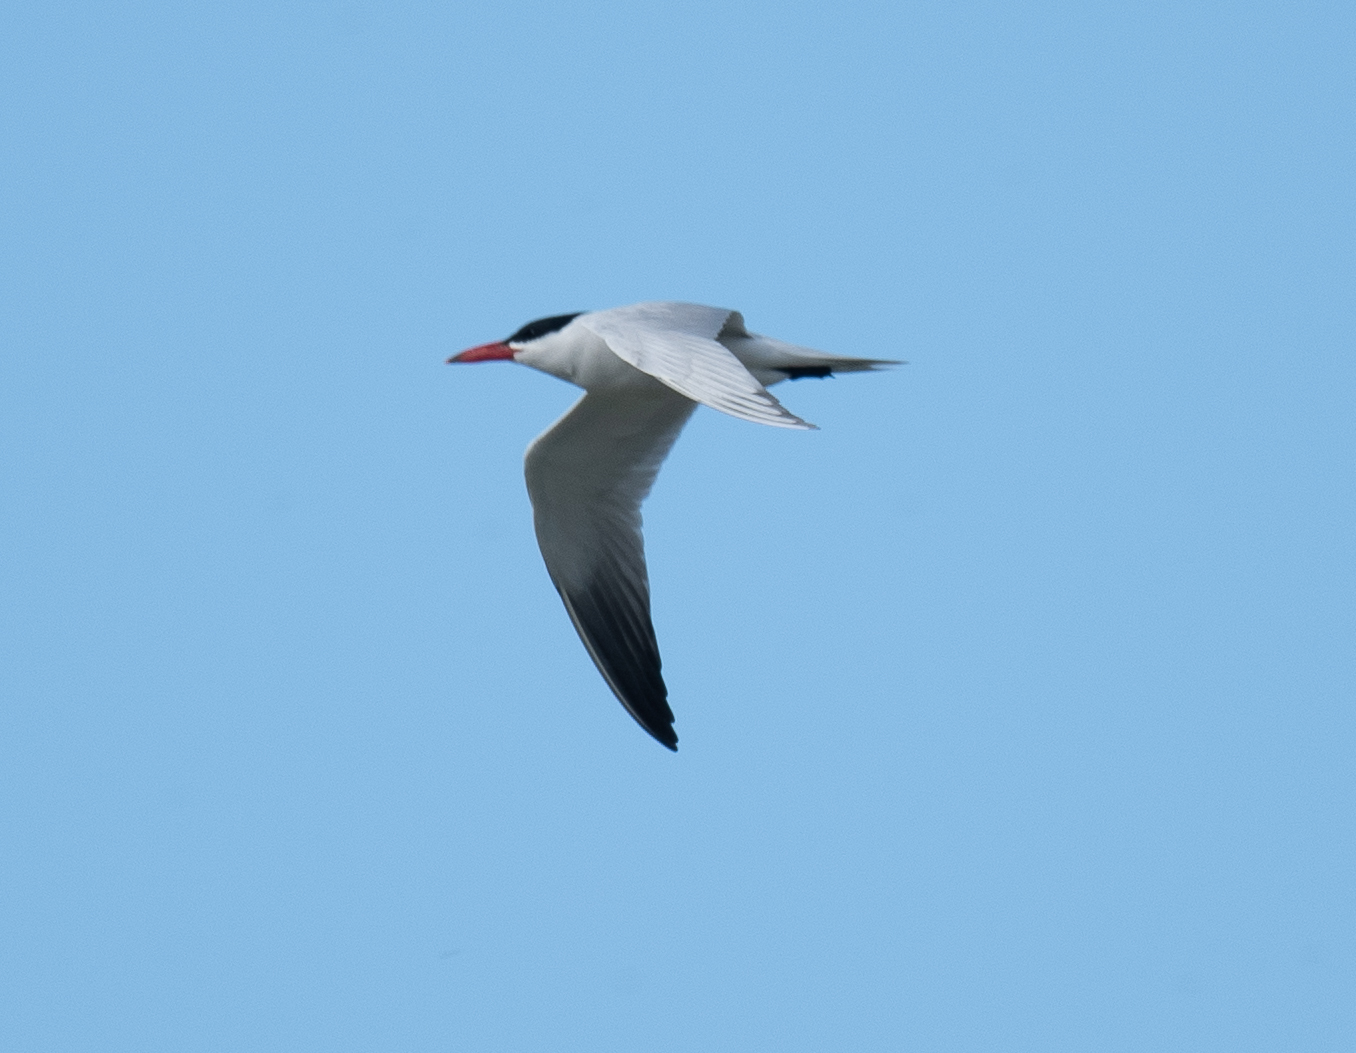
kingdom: Animalia
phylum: Chordata
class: Aves
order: Charadriiformes
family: Laridae
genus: Hydroprogne
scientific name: Hydroprogne caspia
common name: Caspian tern
